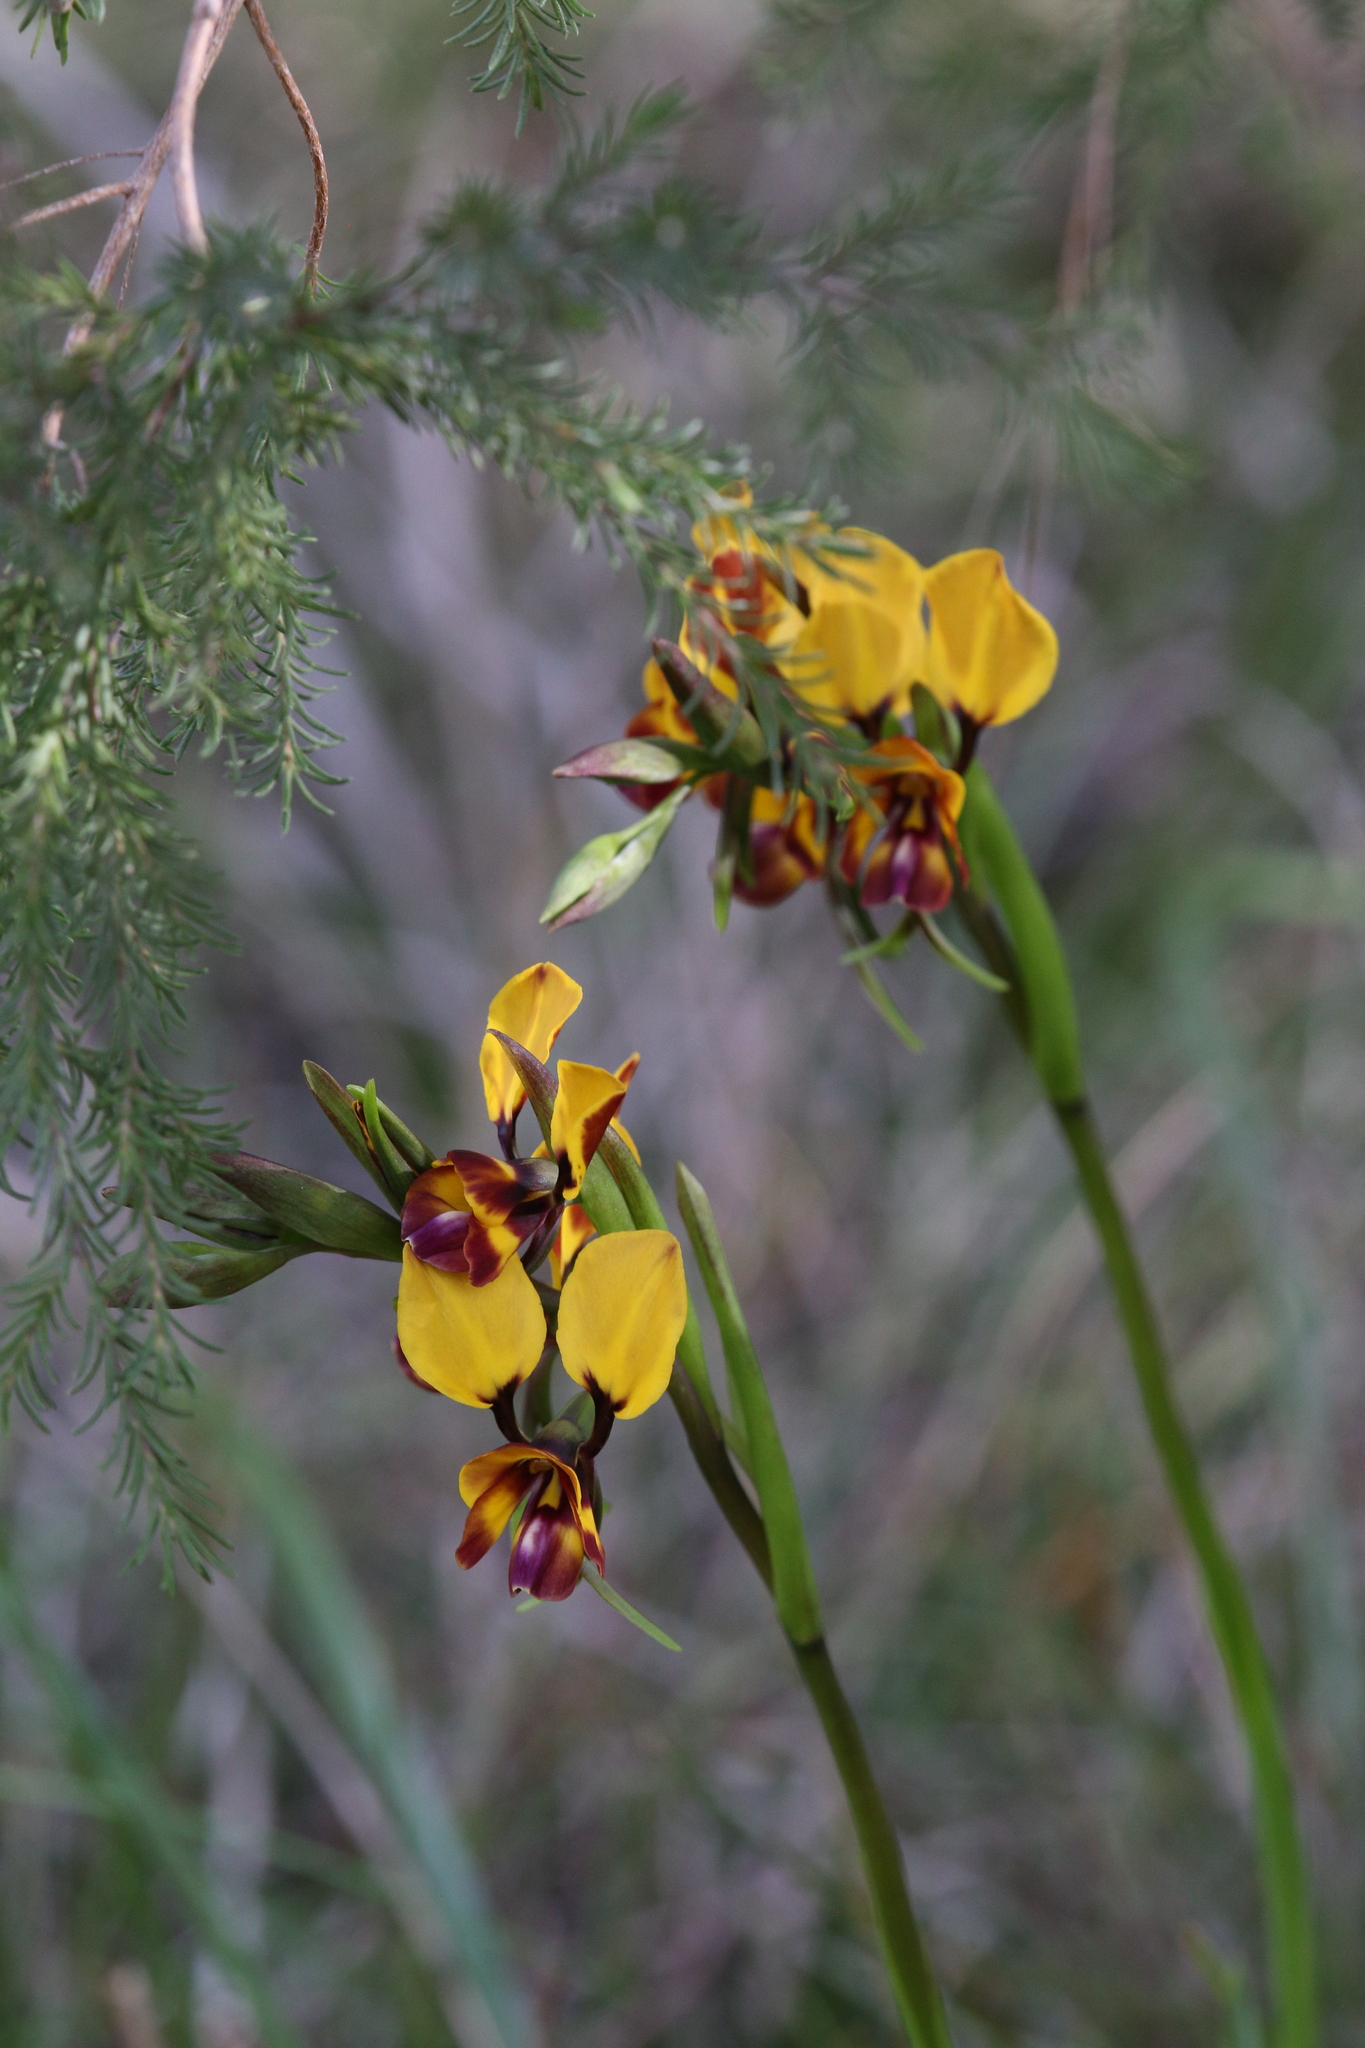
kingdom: Plantae
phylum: Tracheophyta
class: Liliopsida
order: Asparagales
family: Orchidaceae
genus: Diuris
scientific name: Diuris magnifica
